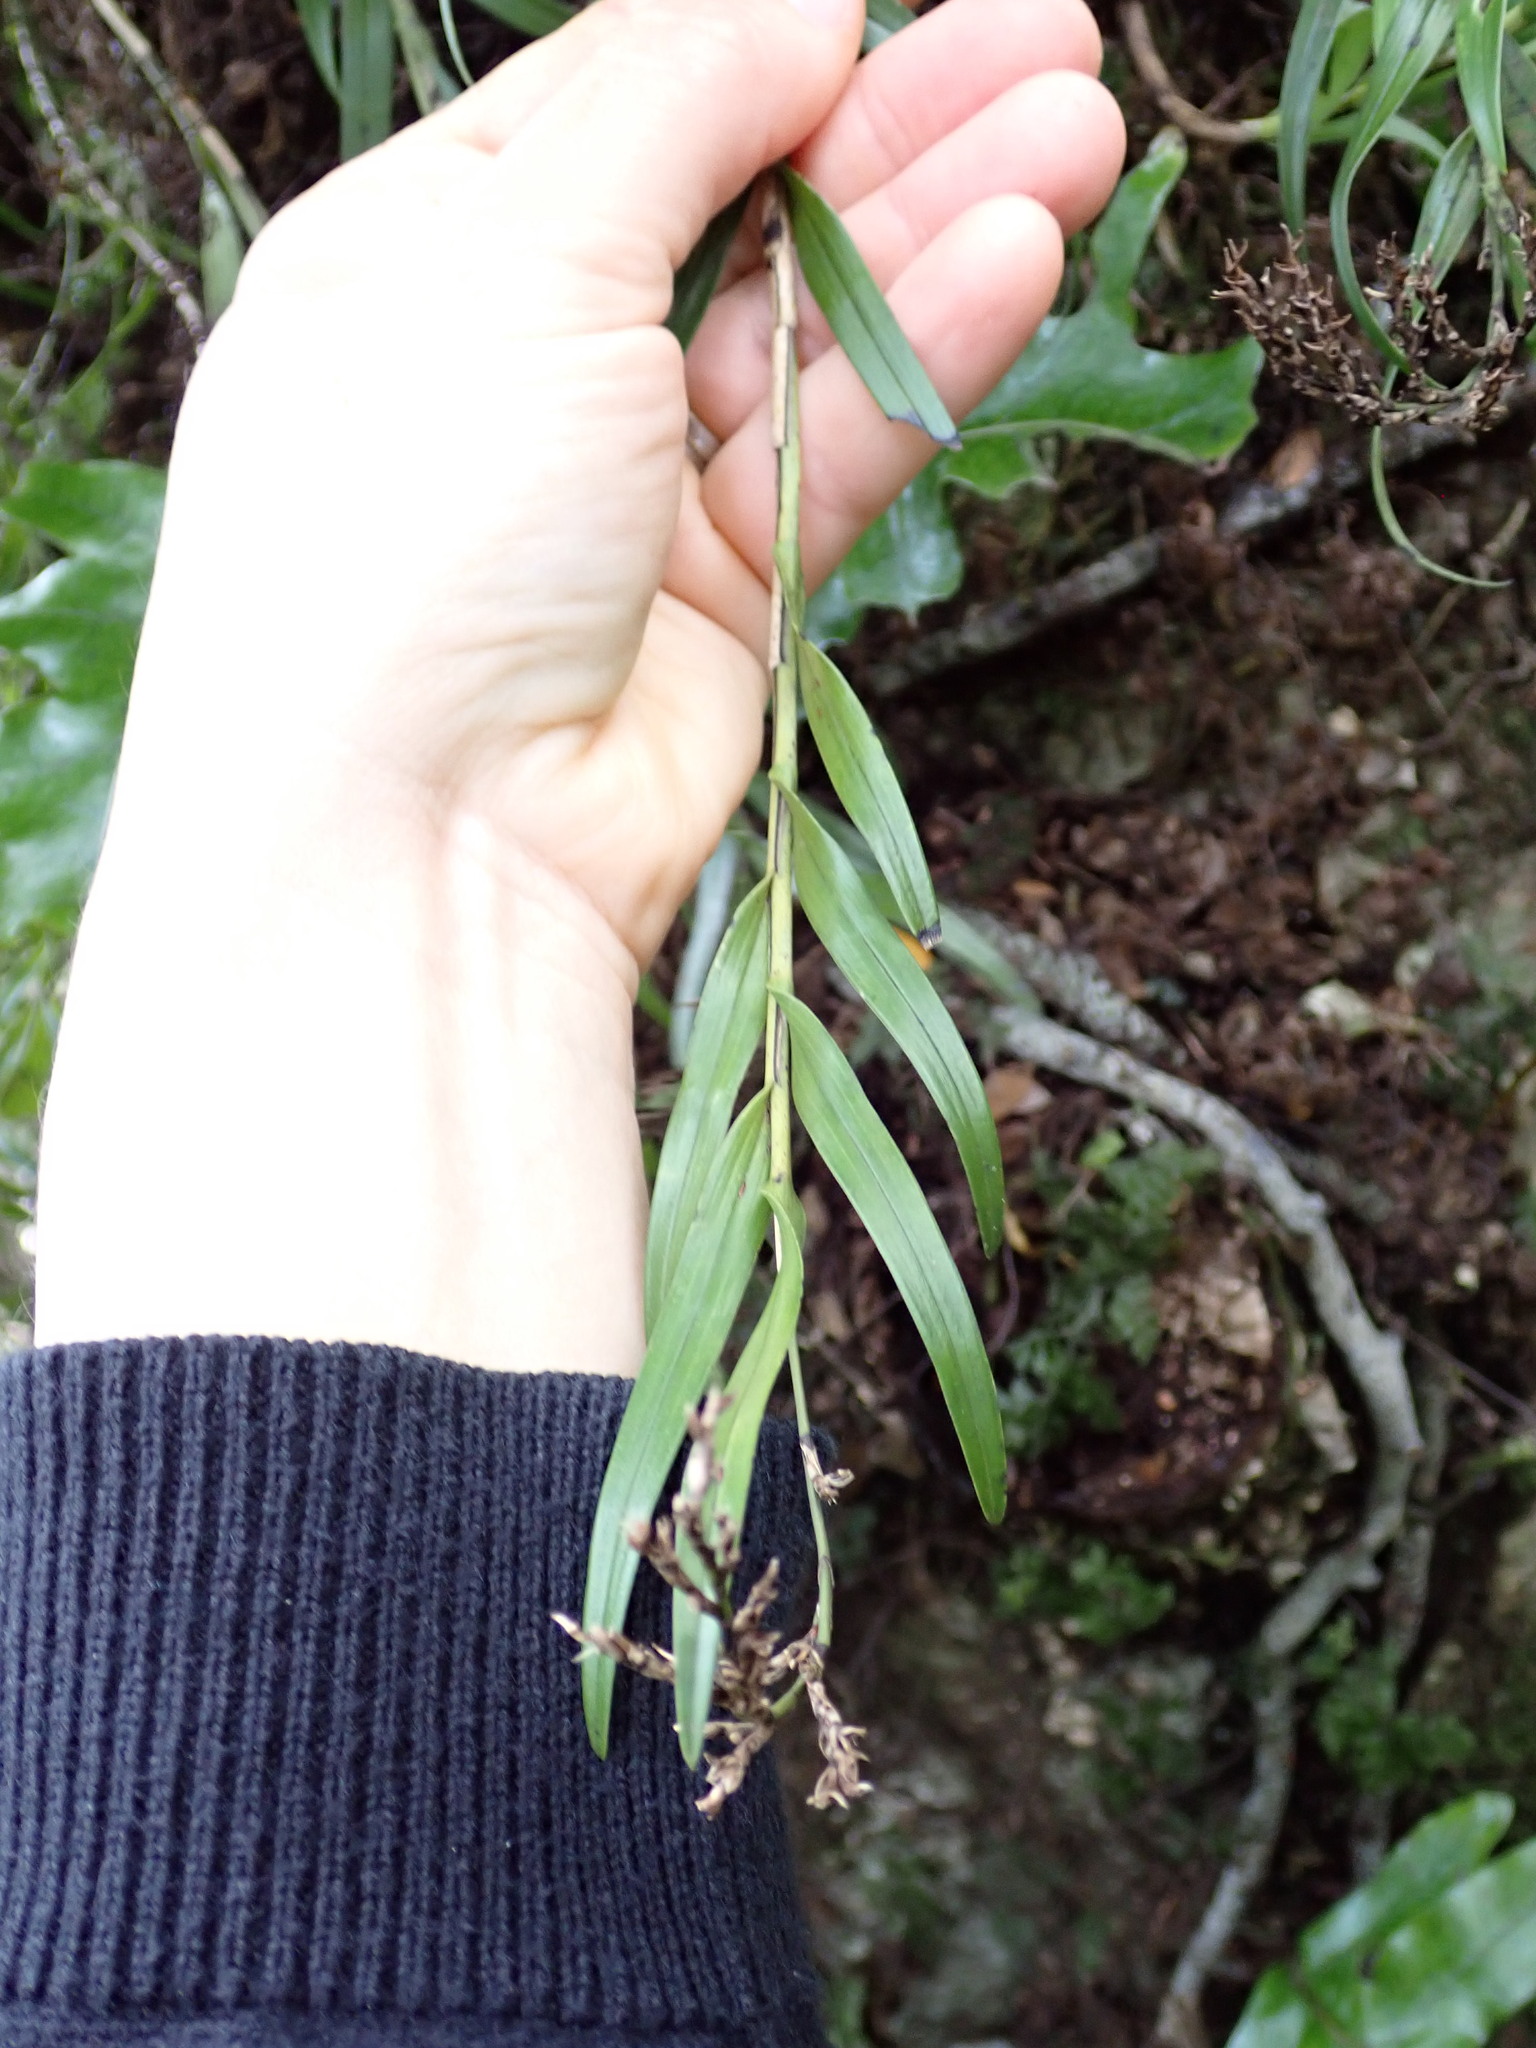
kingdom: Plantae
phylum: Tracheophyta
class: Liliopsida
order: Asparagales
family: Orchidaceae
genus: Earina
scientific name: Earina autumnalis
